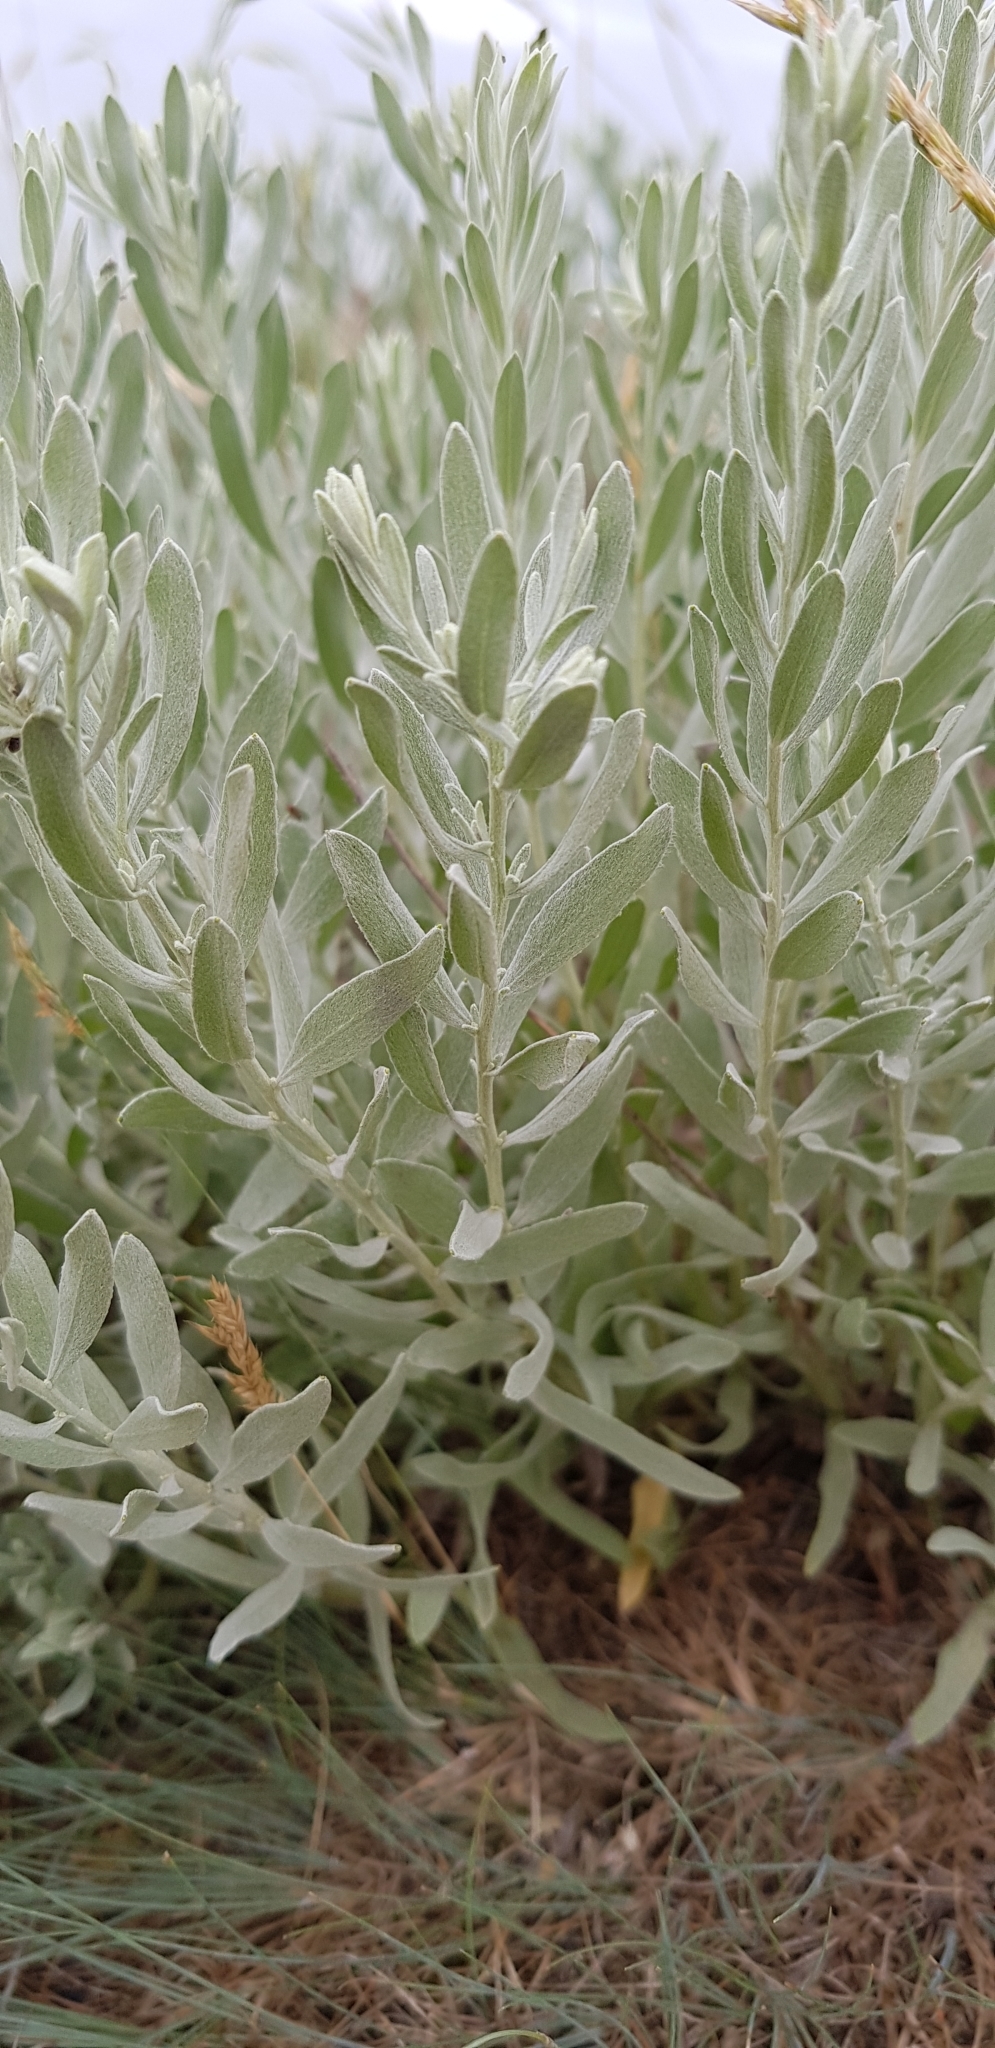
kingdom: Plantae
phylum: Tracheophyta
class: Magnoliopsida
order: Asterales
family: Asteraceae
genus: Galatella
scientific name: Galatella villosa
